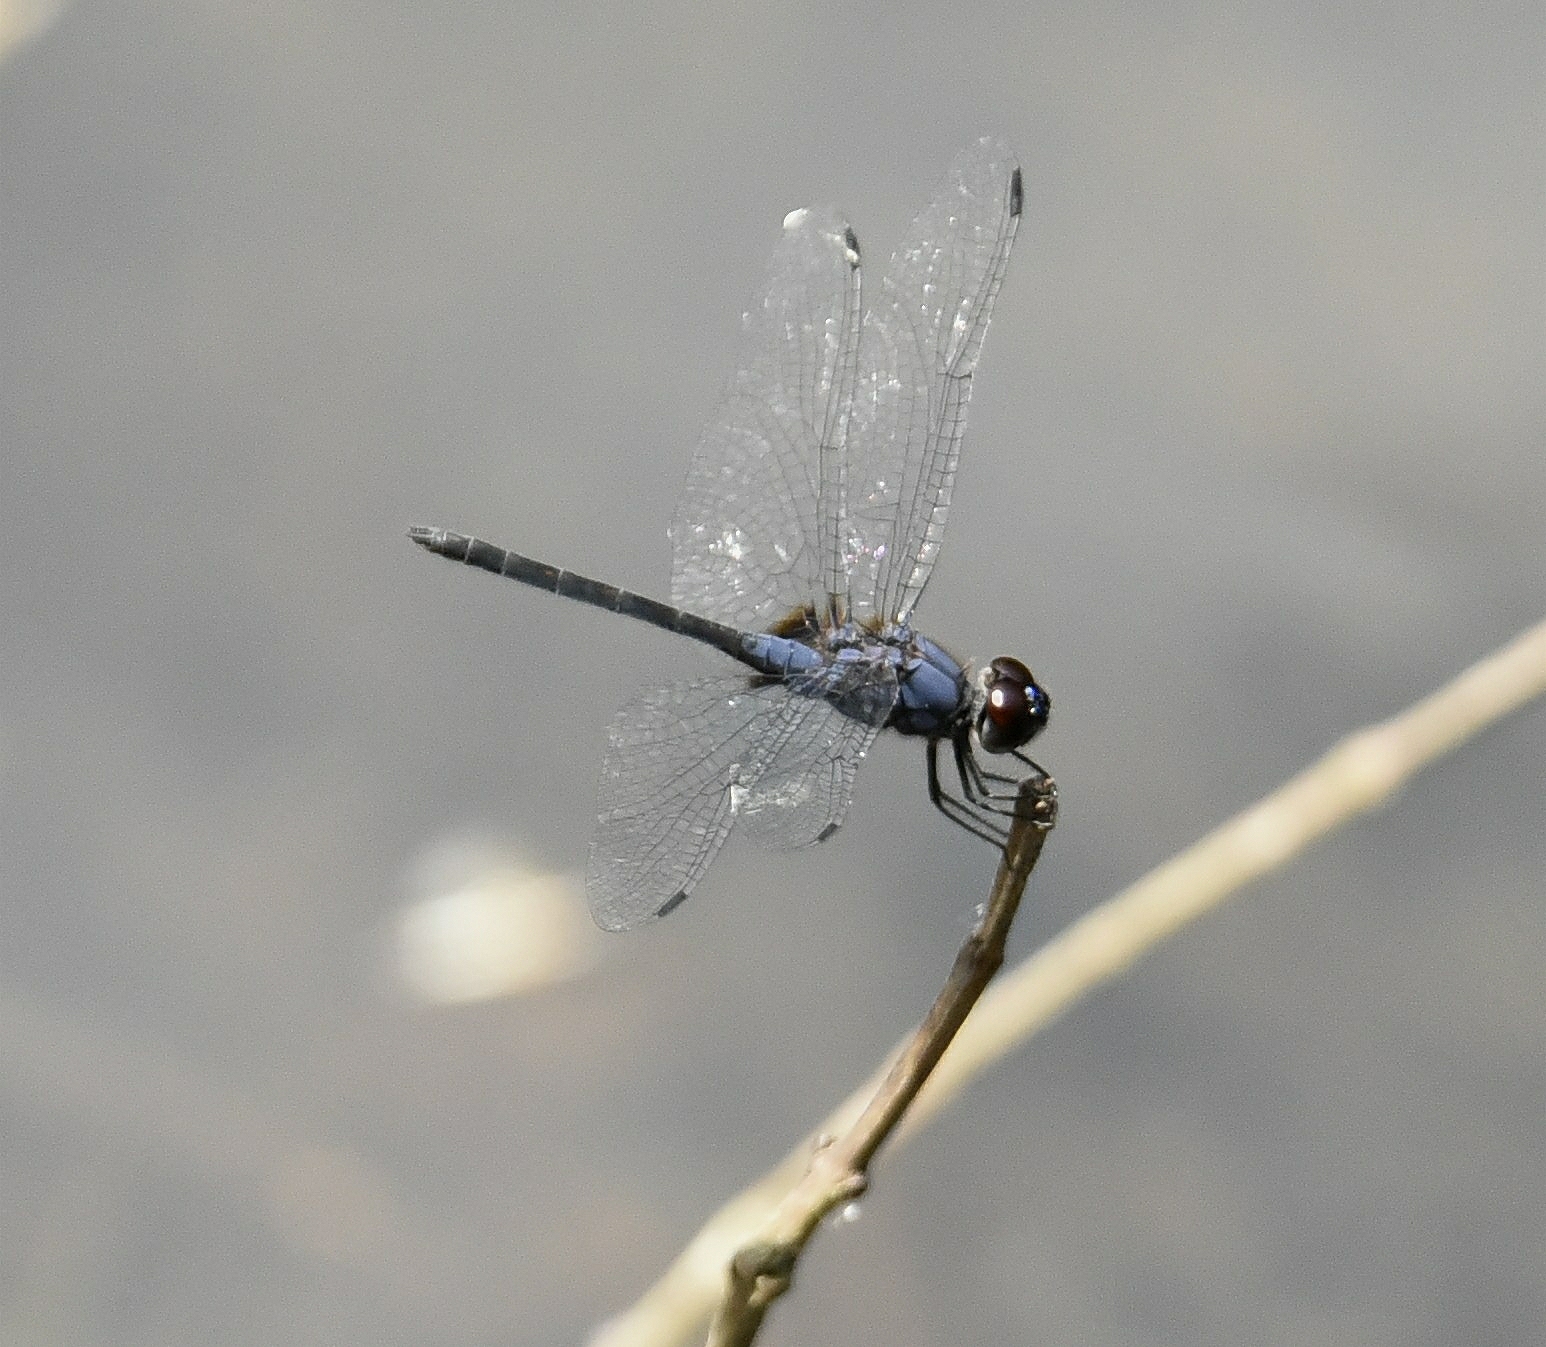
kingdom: Animalia
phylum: Arthropoda
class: Insecta
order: Odonata
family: Libellulidae
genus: Trithemis
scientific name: Trithemis festiva
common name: Indigo dropwing
